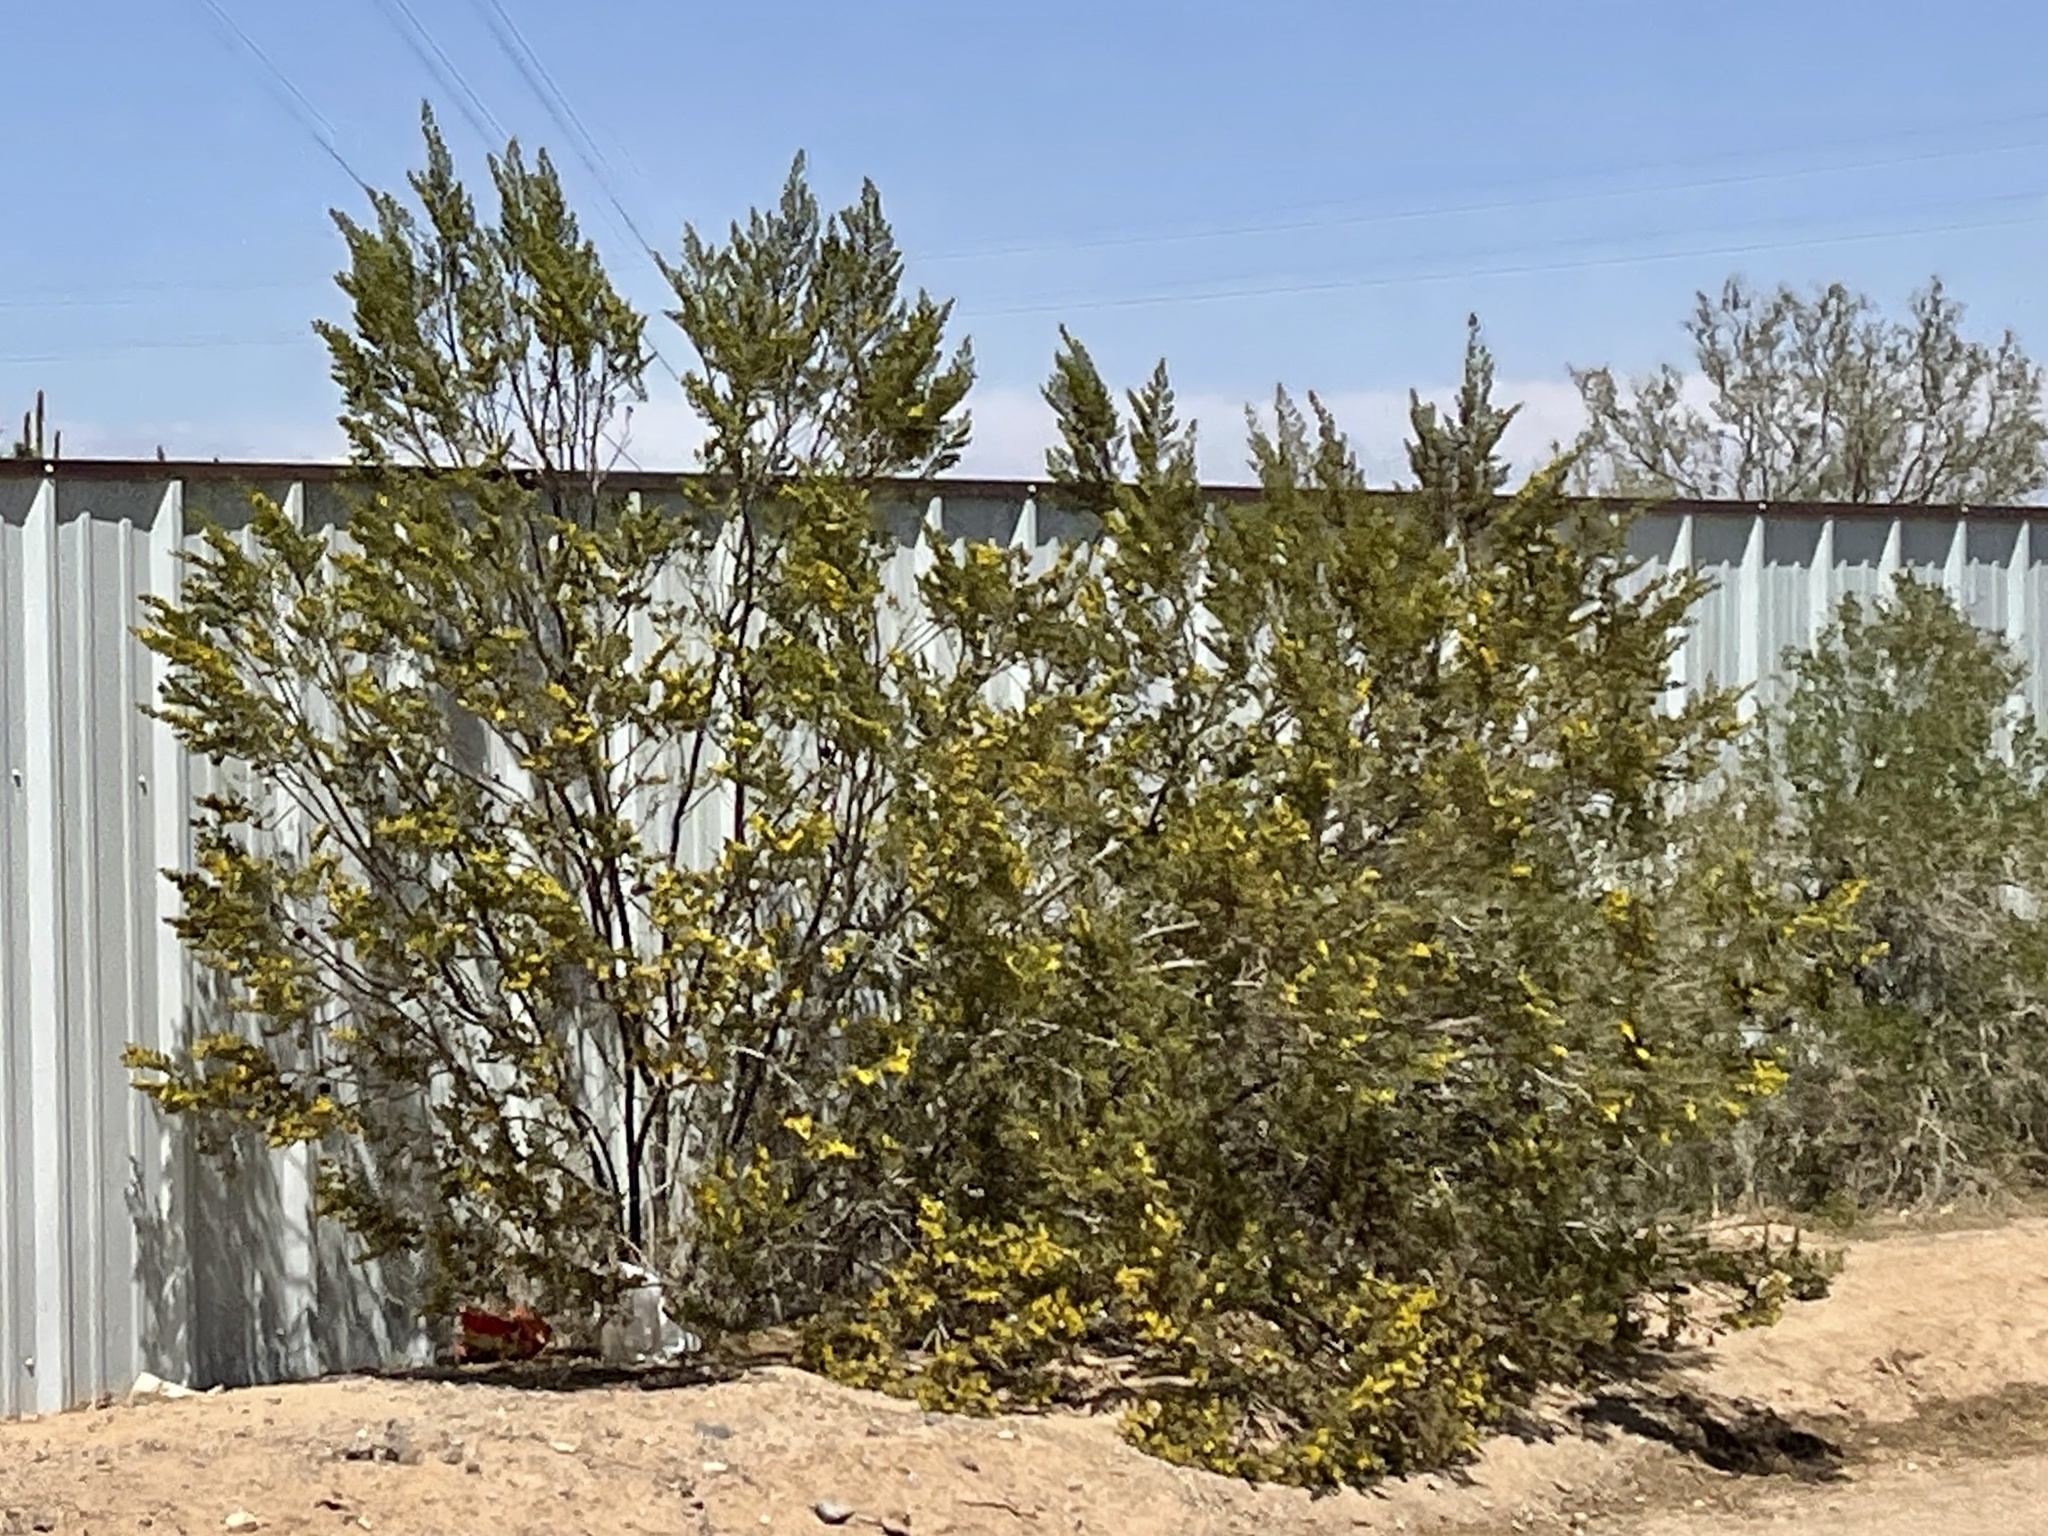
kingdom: Plantae
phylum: Tracheophyta
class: Magnoliopsida
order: Zygophyllales
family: Zygophyllaceae
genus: Larrea
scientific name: Larrea tridentata
